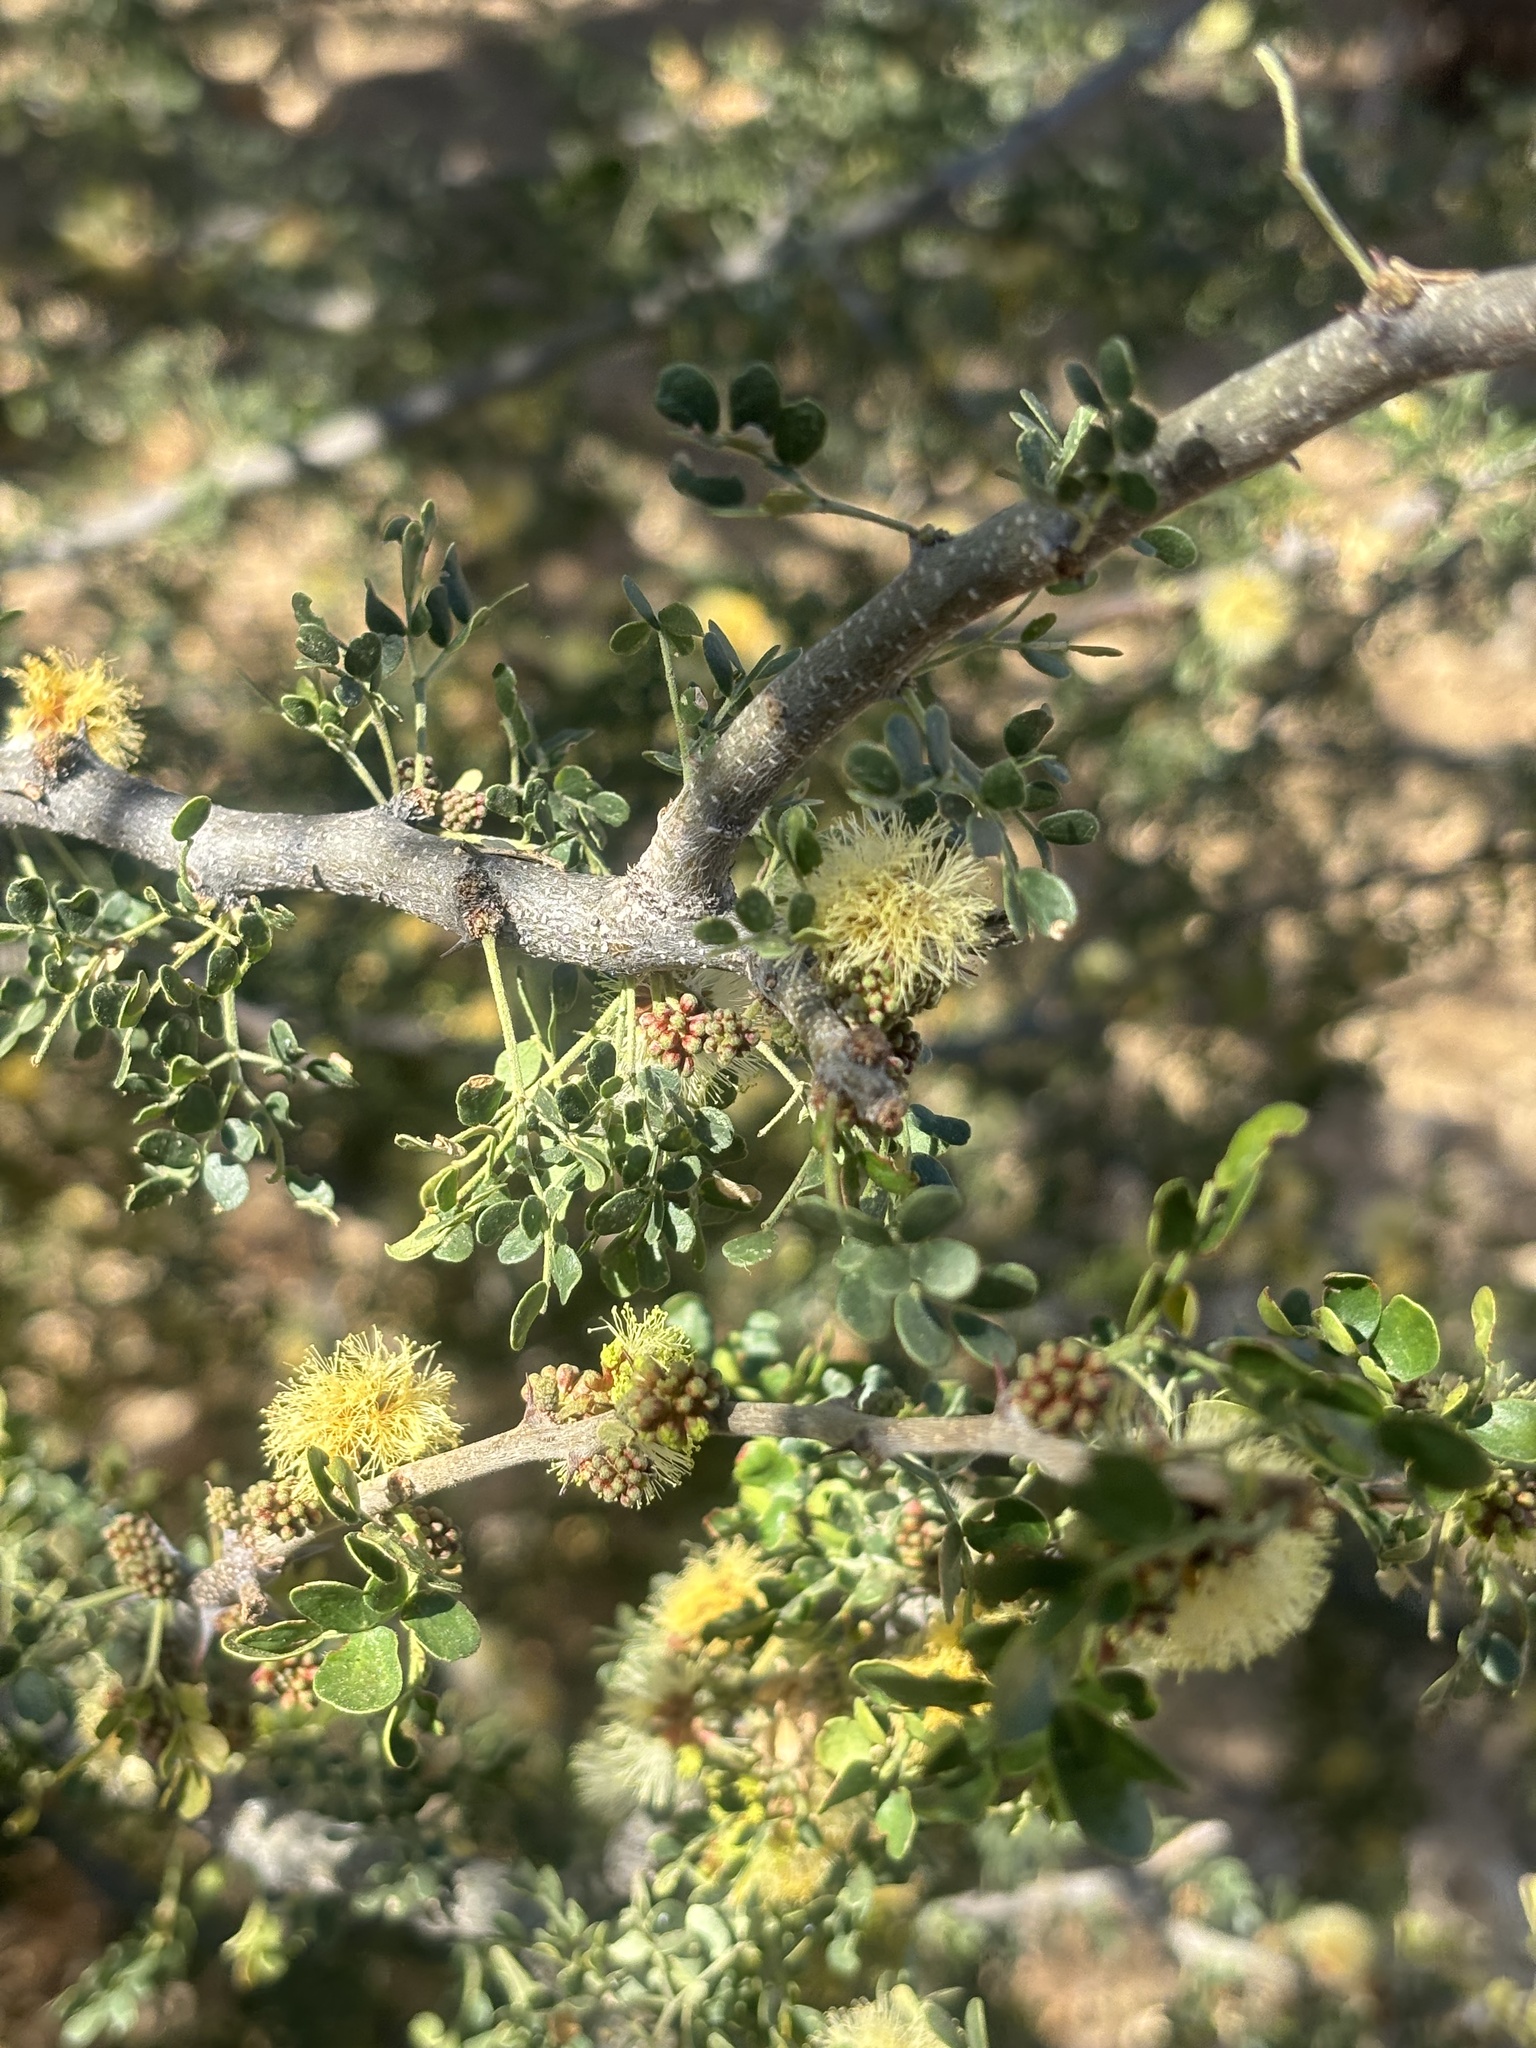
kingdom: Plantae
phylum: Tracheophyta
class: Magnoliopsida
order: Fabales
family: Fabaceae
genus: Ebenopsis
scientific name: Ebenopsis confinis
